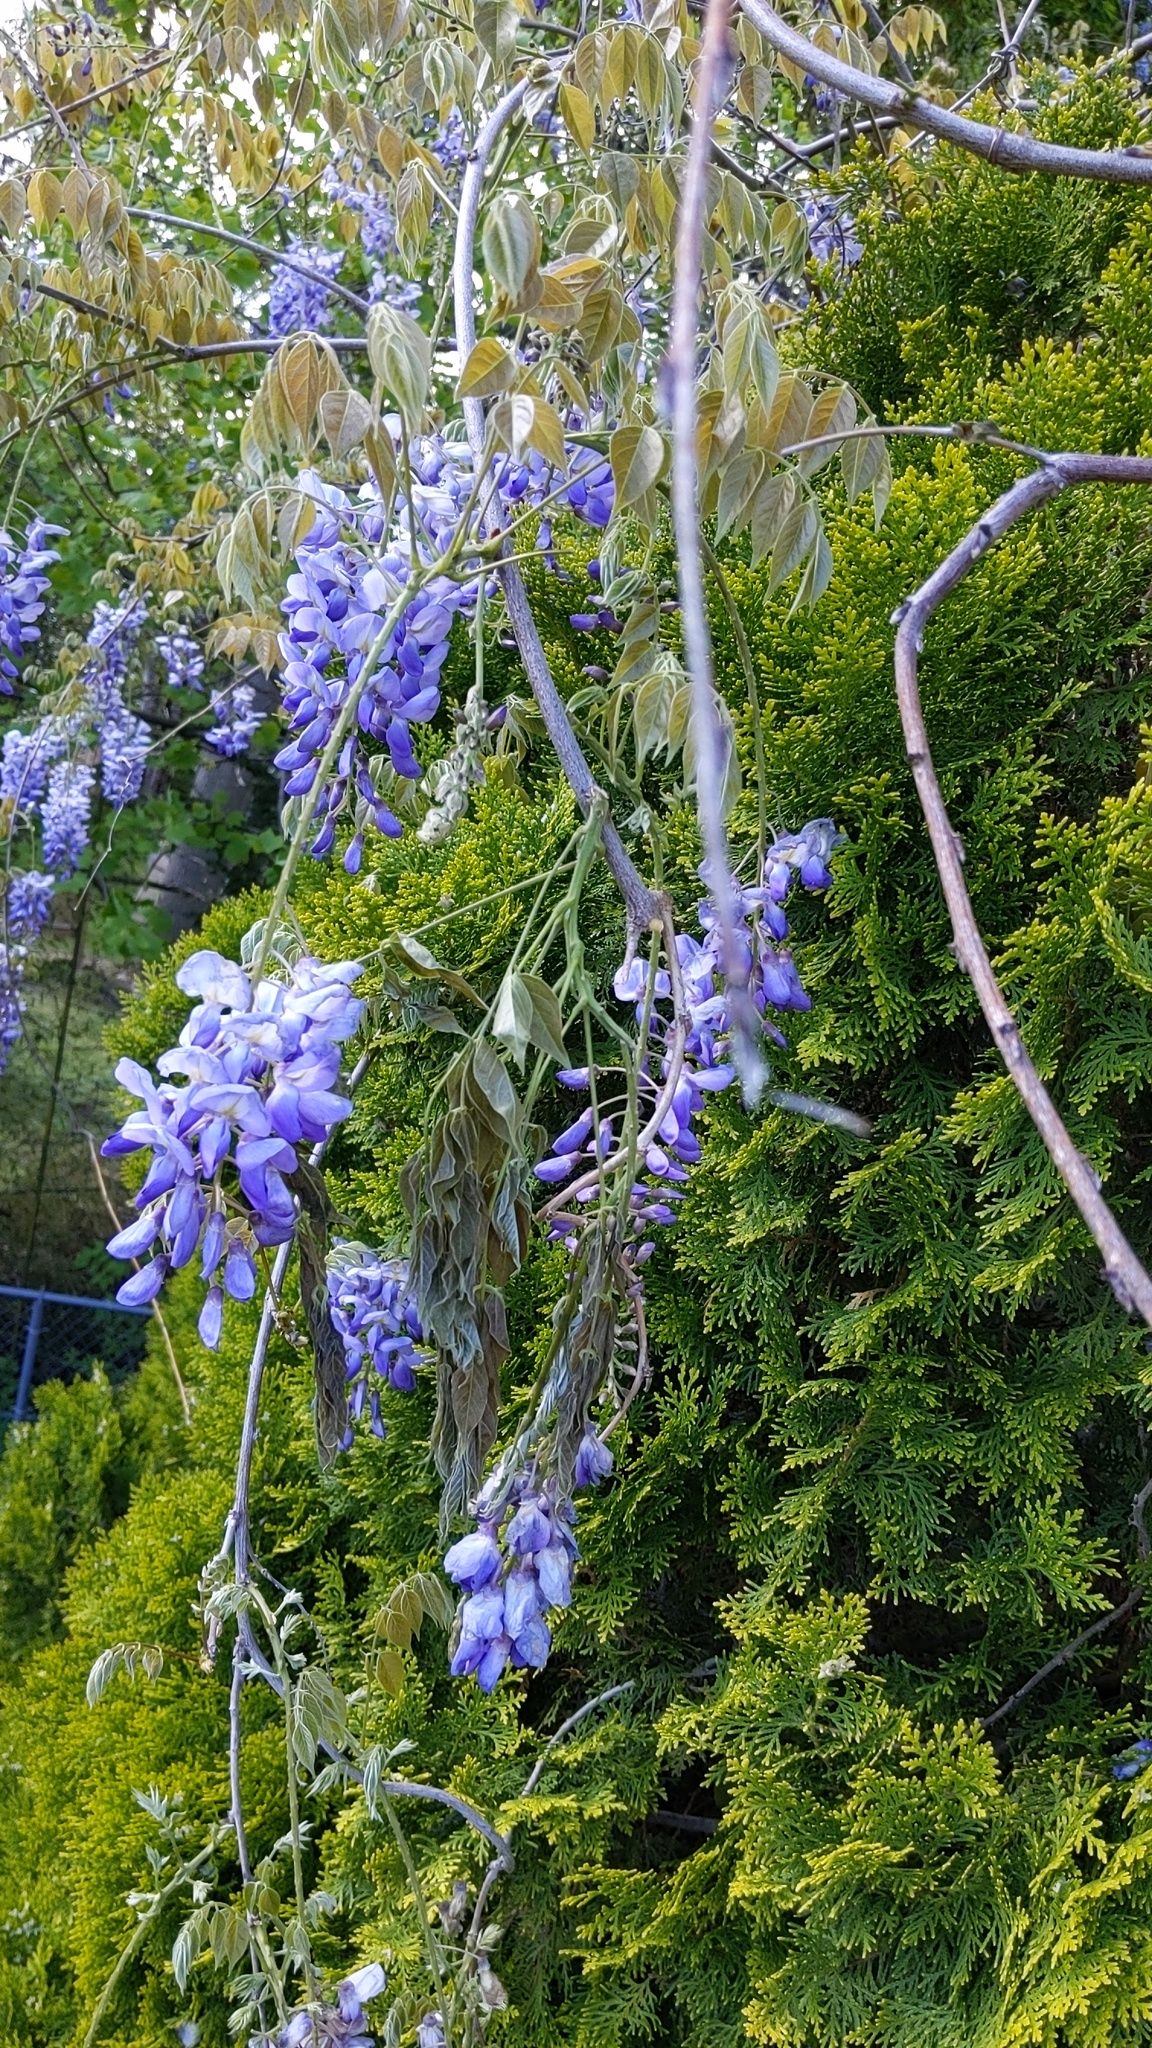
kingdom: Plantae
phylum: Tracheophyta
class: Magnoliopsida
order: Fabales
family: Fabaceae
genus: Wisteria
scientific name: Wisteria sinensis
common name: Chinese wisteria
